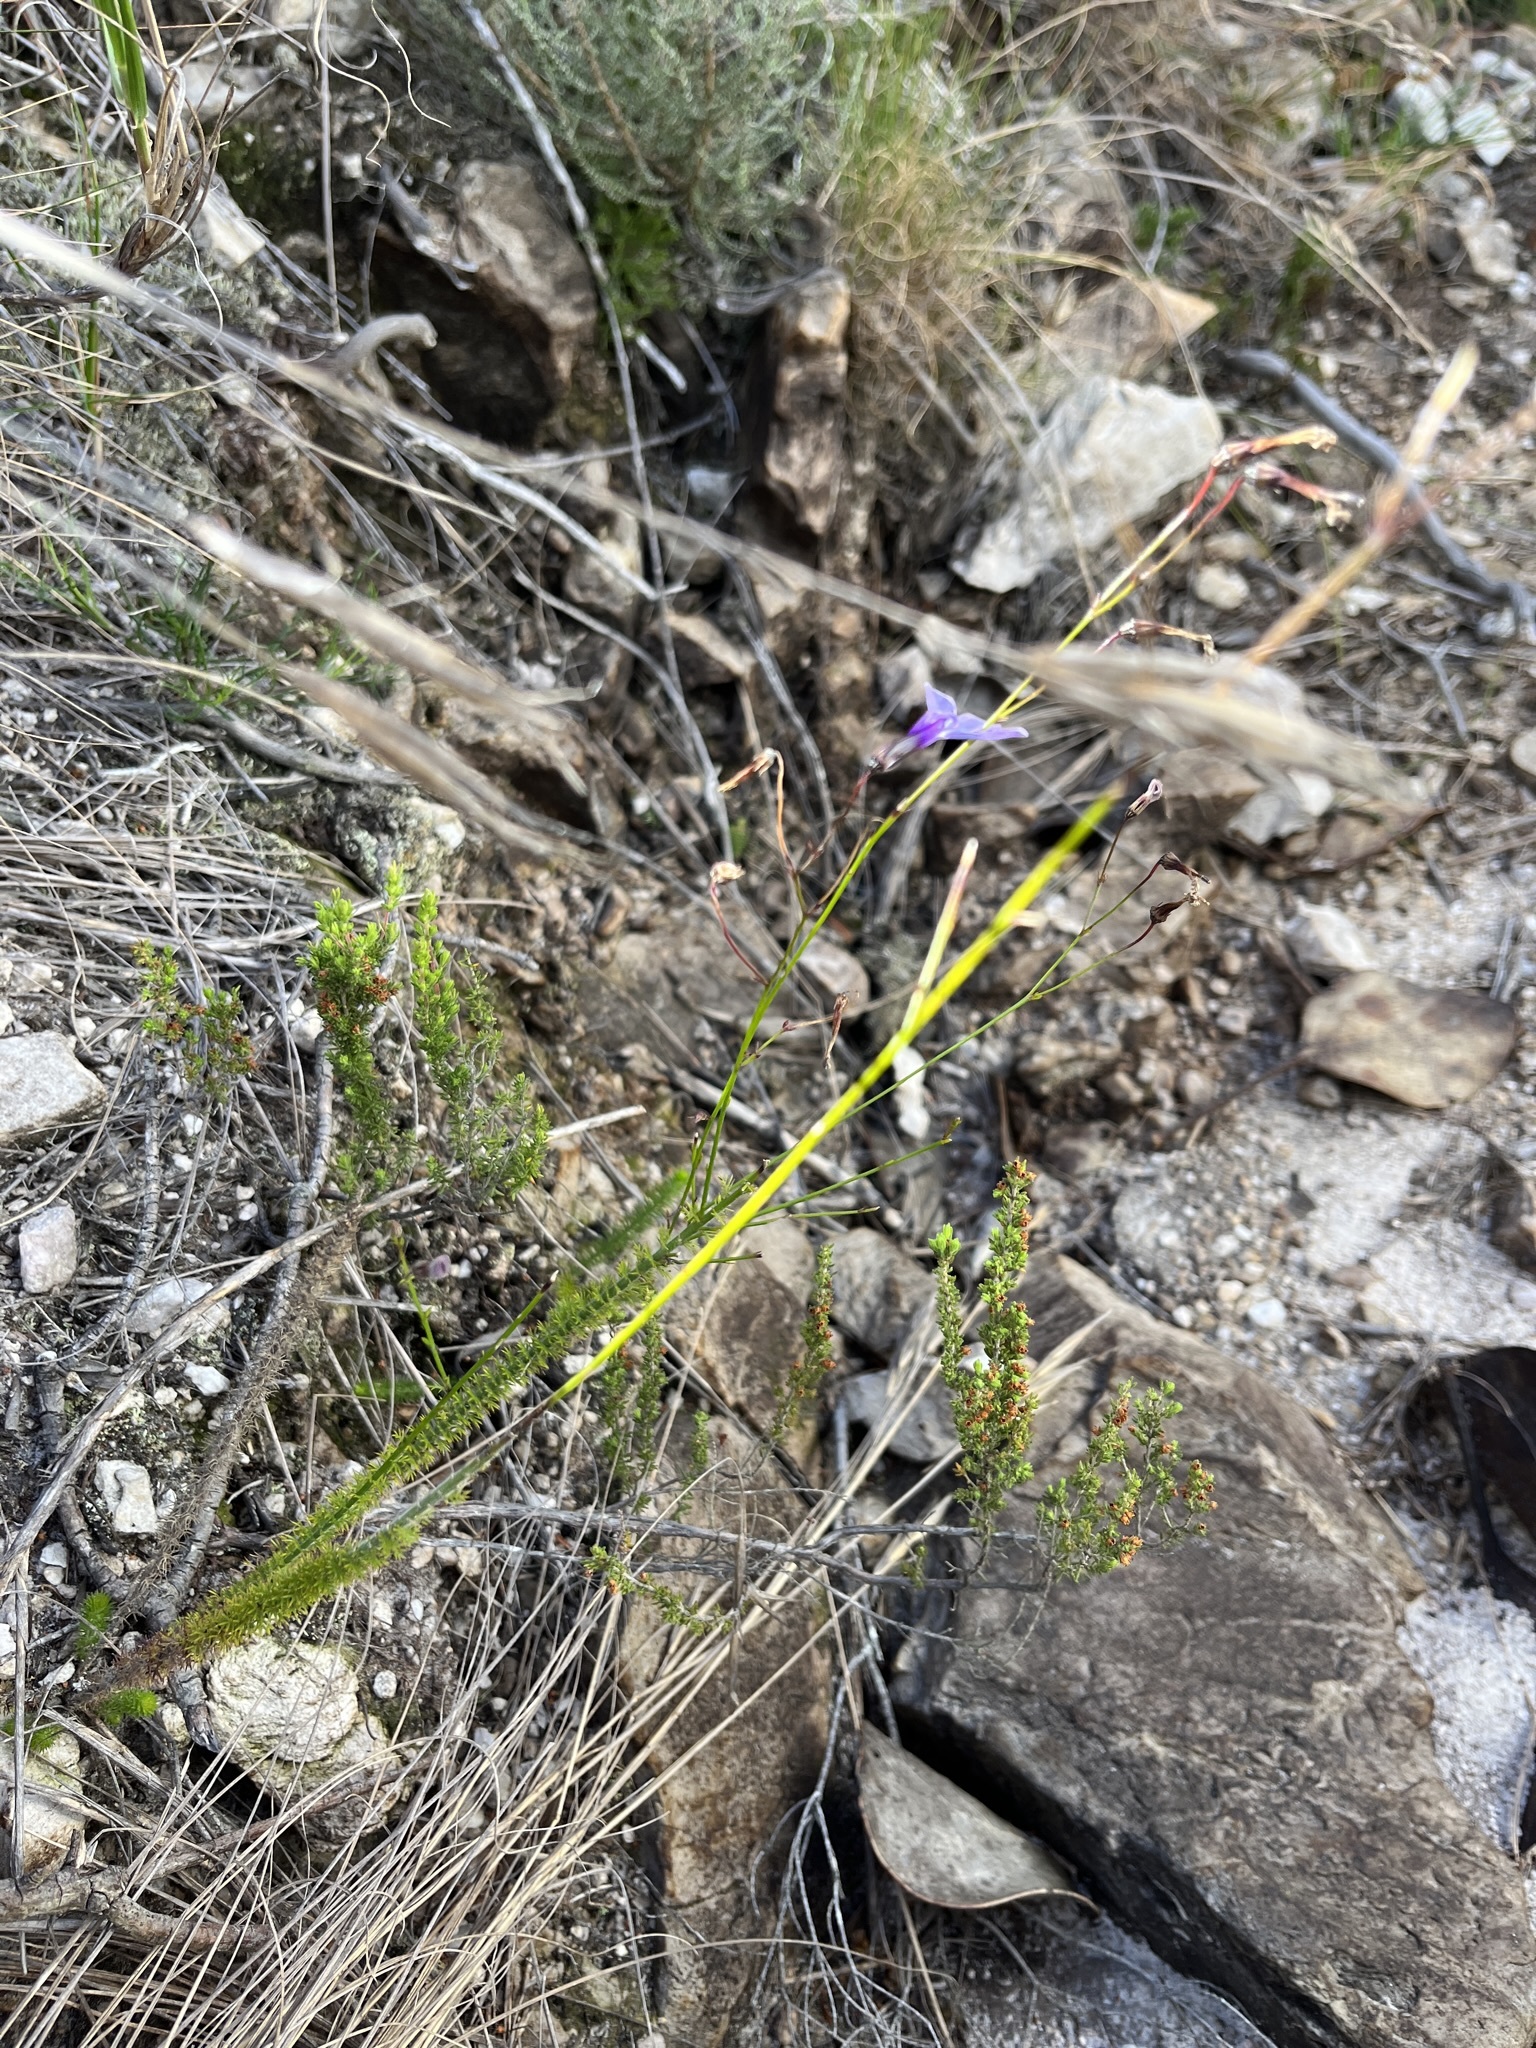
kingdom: Plantae
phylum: Tracheophyta
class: Magnoliopsida
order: Asterales
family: Campanulaceae
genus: Lobelia
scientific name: Lobelia barkerae
